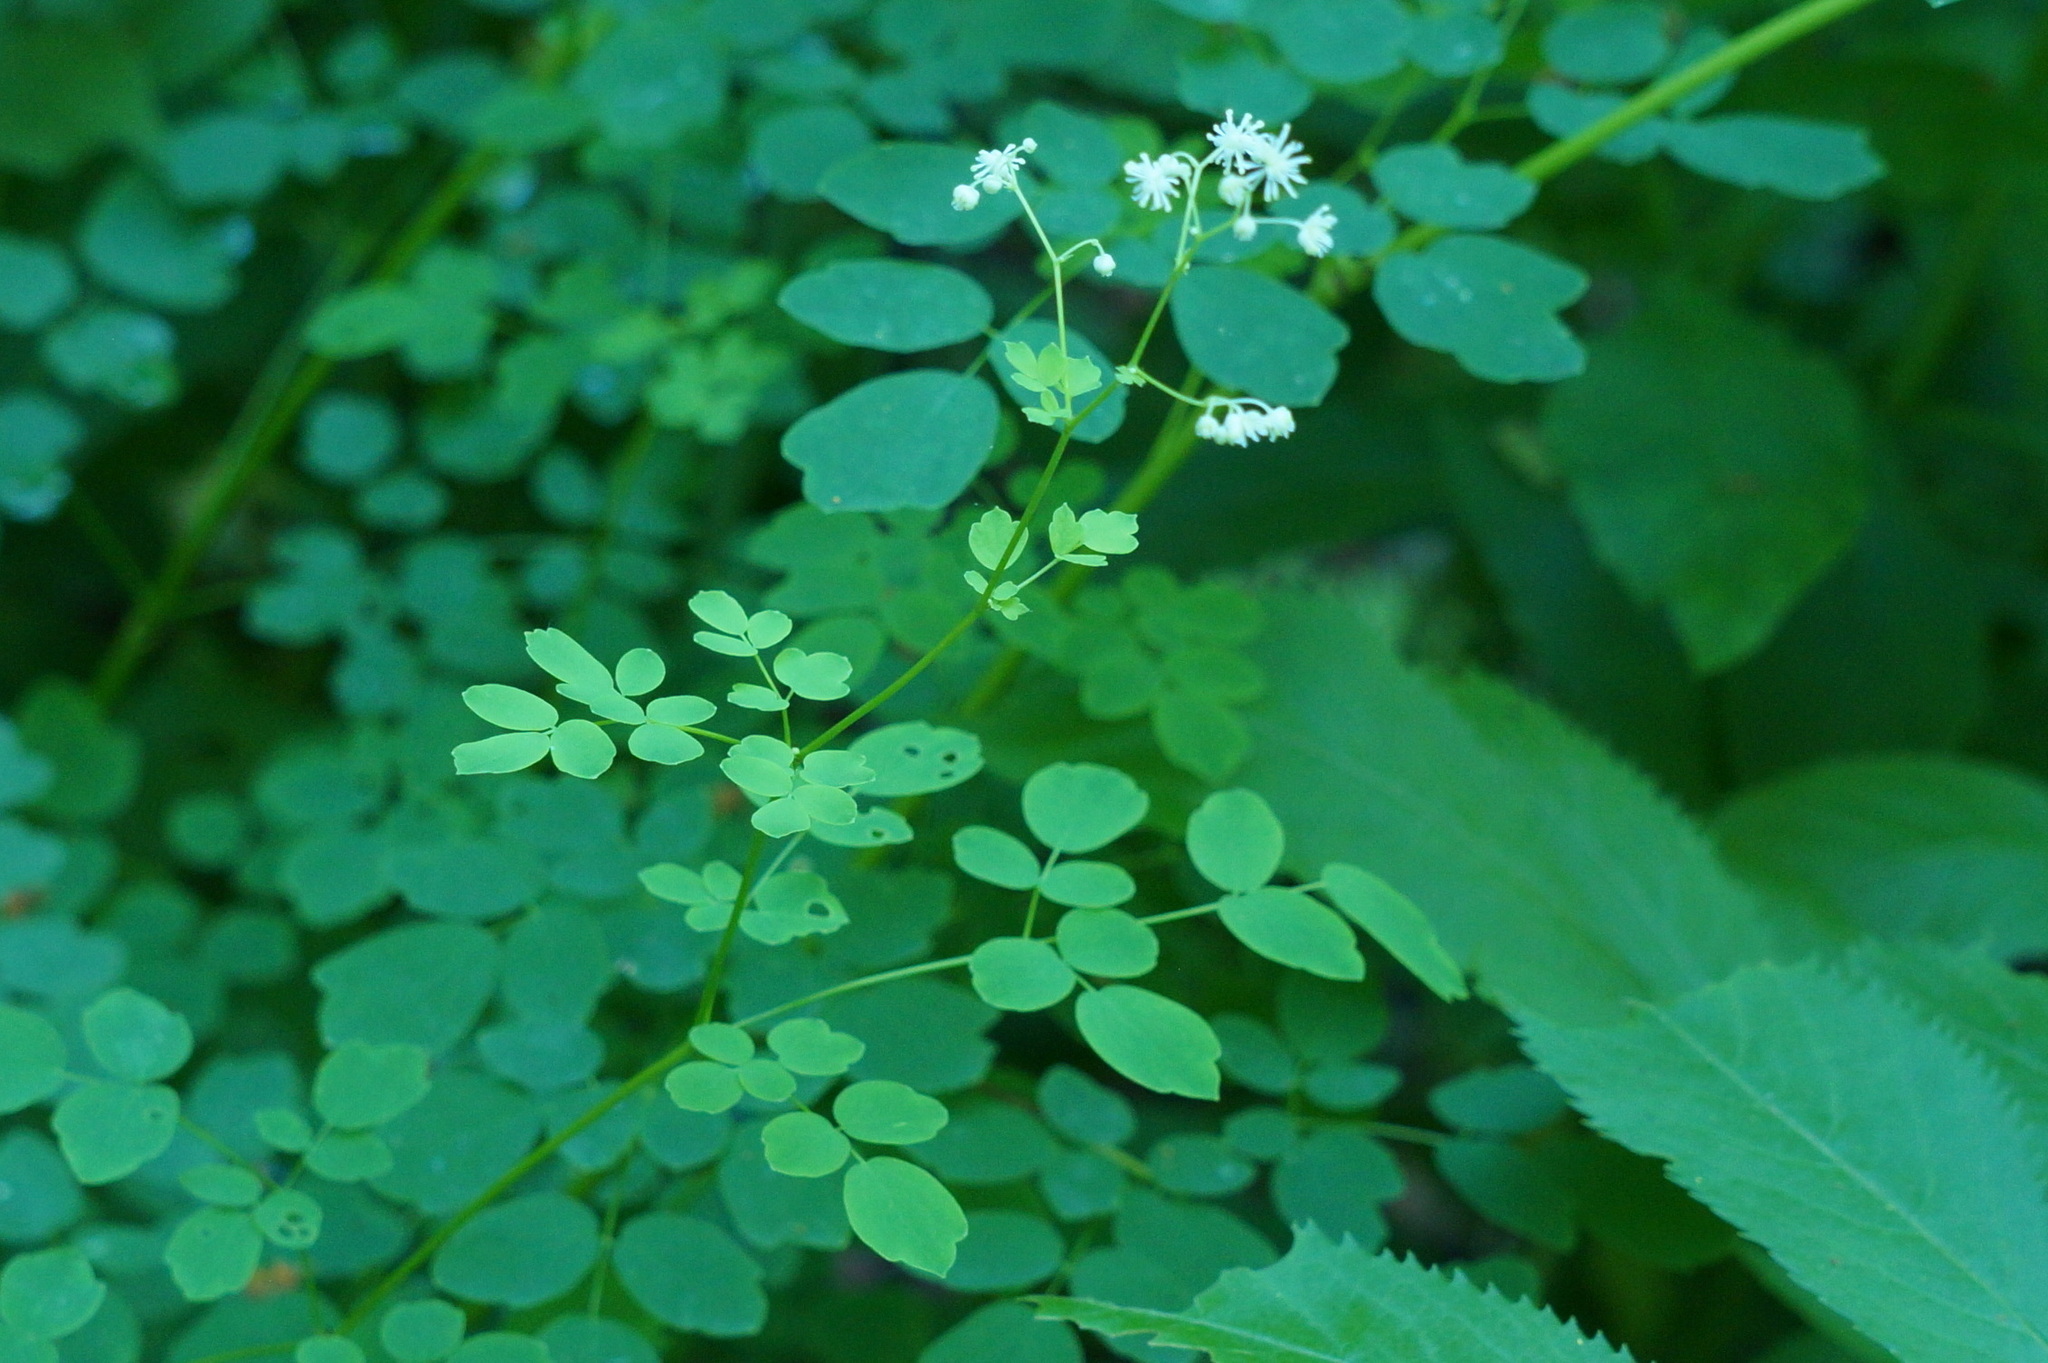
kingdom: Plantae
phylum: Tracheophyta
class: Magnoliopsida
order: Ranunculales
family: Ranunculaceae
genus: Thalictrum
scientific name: Thalictrum pubescens
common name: King-of-the-meadow
